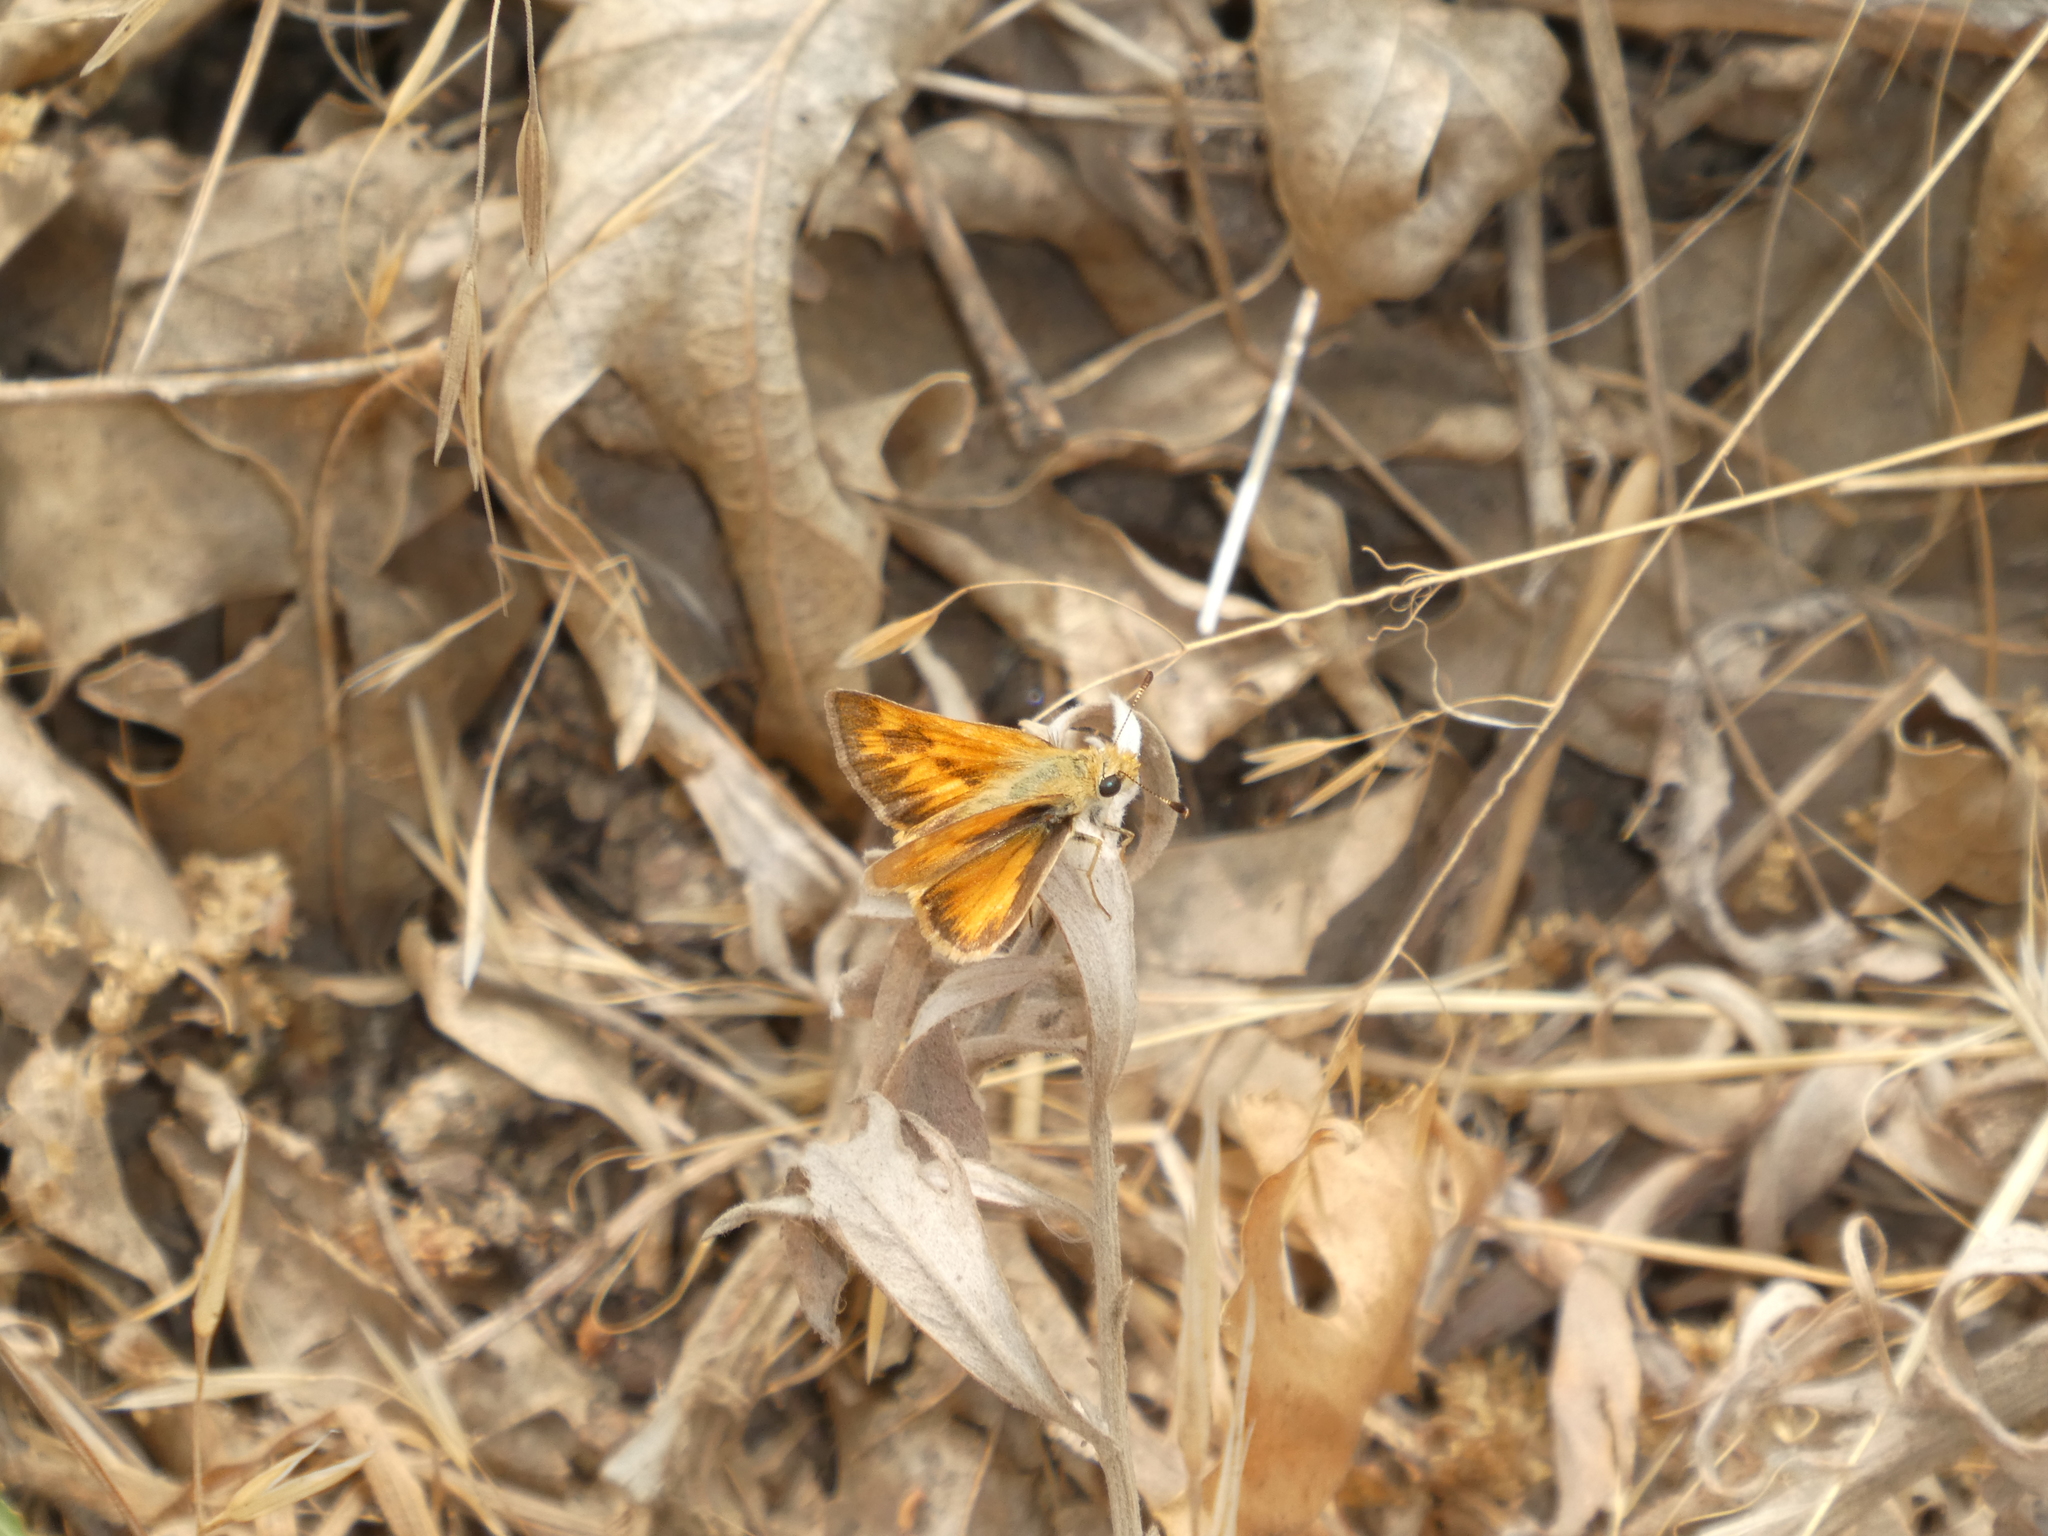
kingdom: Animalia
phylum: Arthropoda
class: Insecta
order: Lepidoptera
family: Hesperiidae
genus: Ochlodes
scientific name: Ochlodes sylvanoides
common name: Woodland skipper
